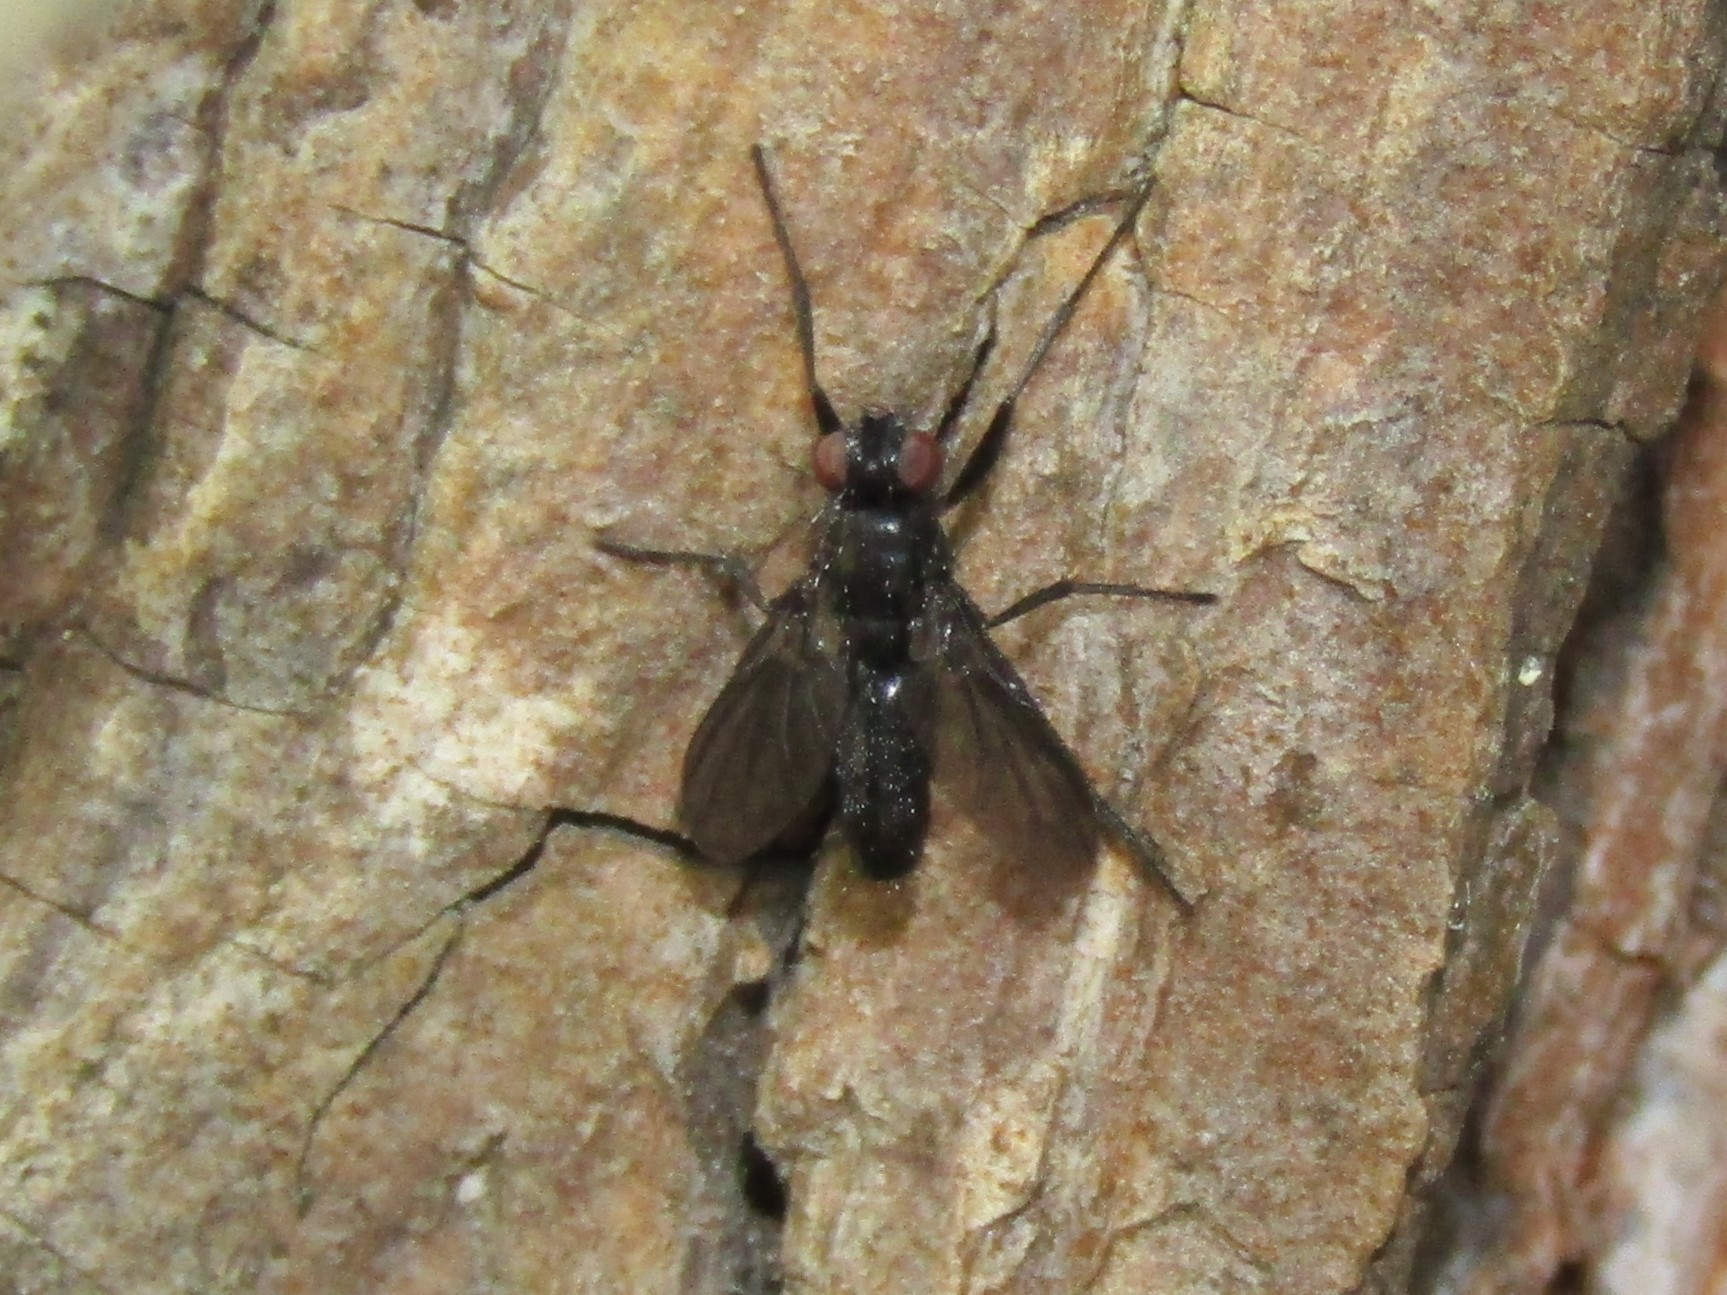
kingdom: Animalia
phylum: Arthropoda
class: Insecta
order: Diptera
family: Calliphoridae
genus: Melanophora
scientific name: Melanophora roralis
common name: Smoky-winged woodlouse-fly
